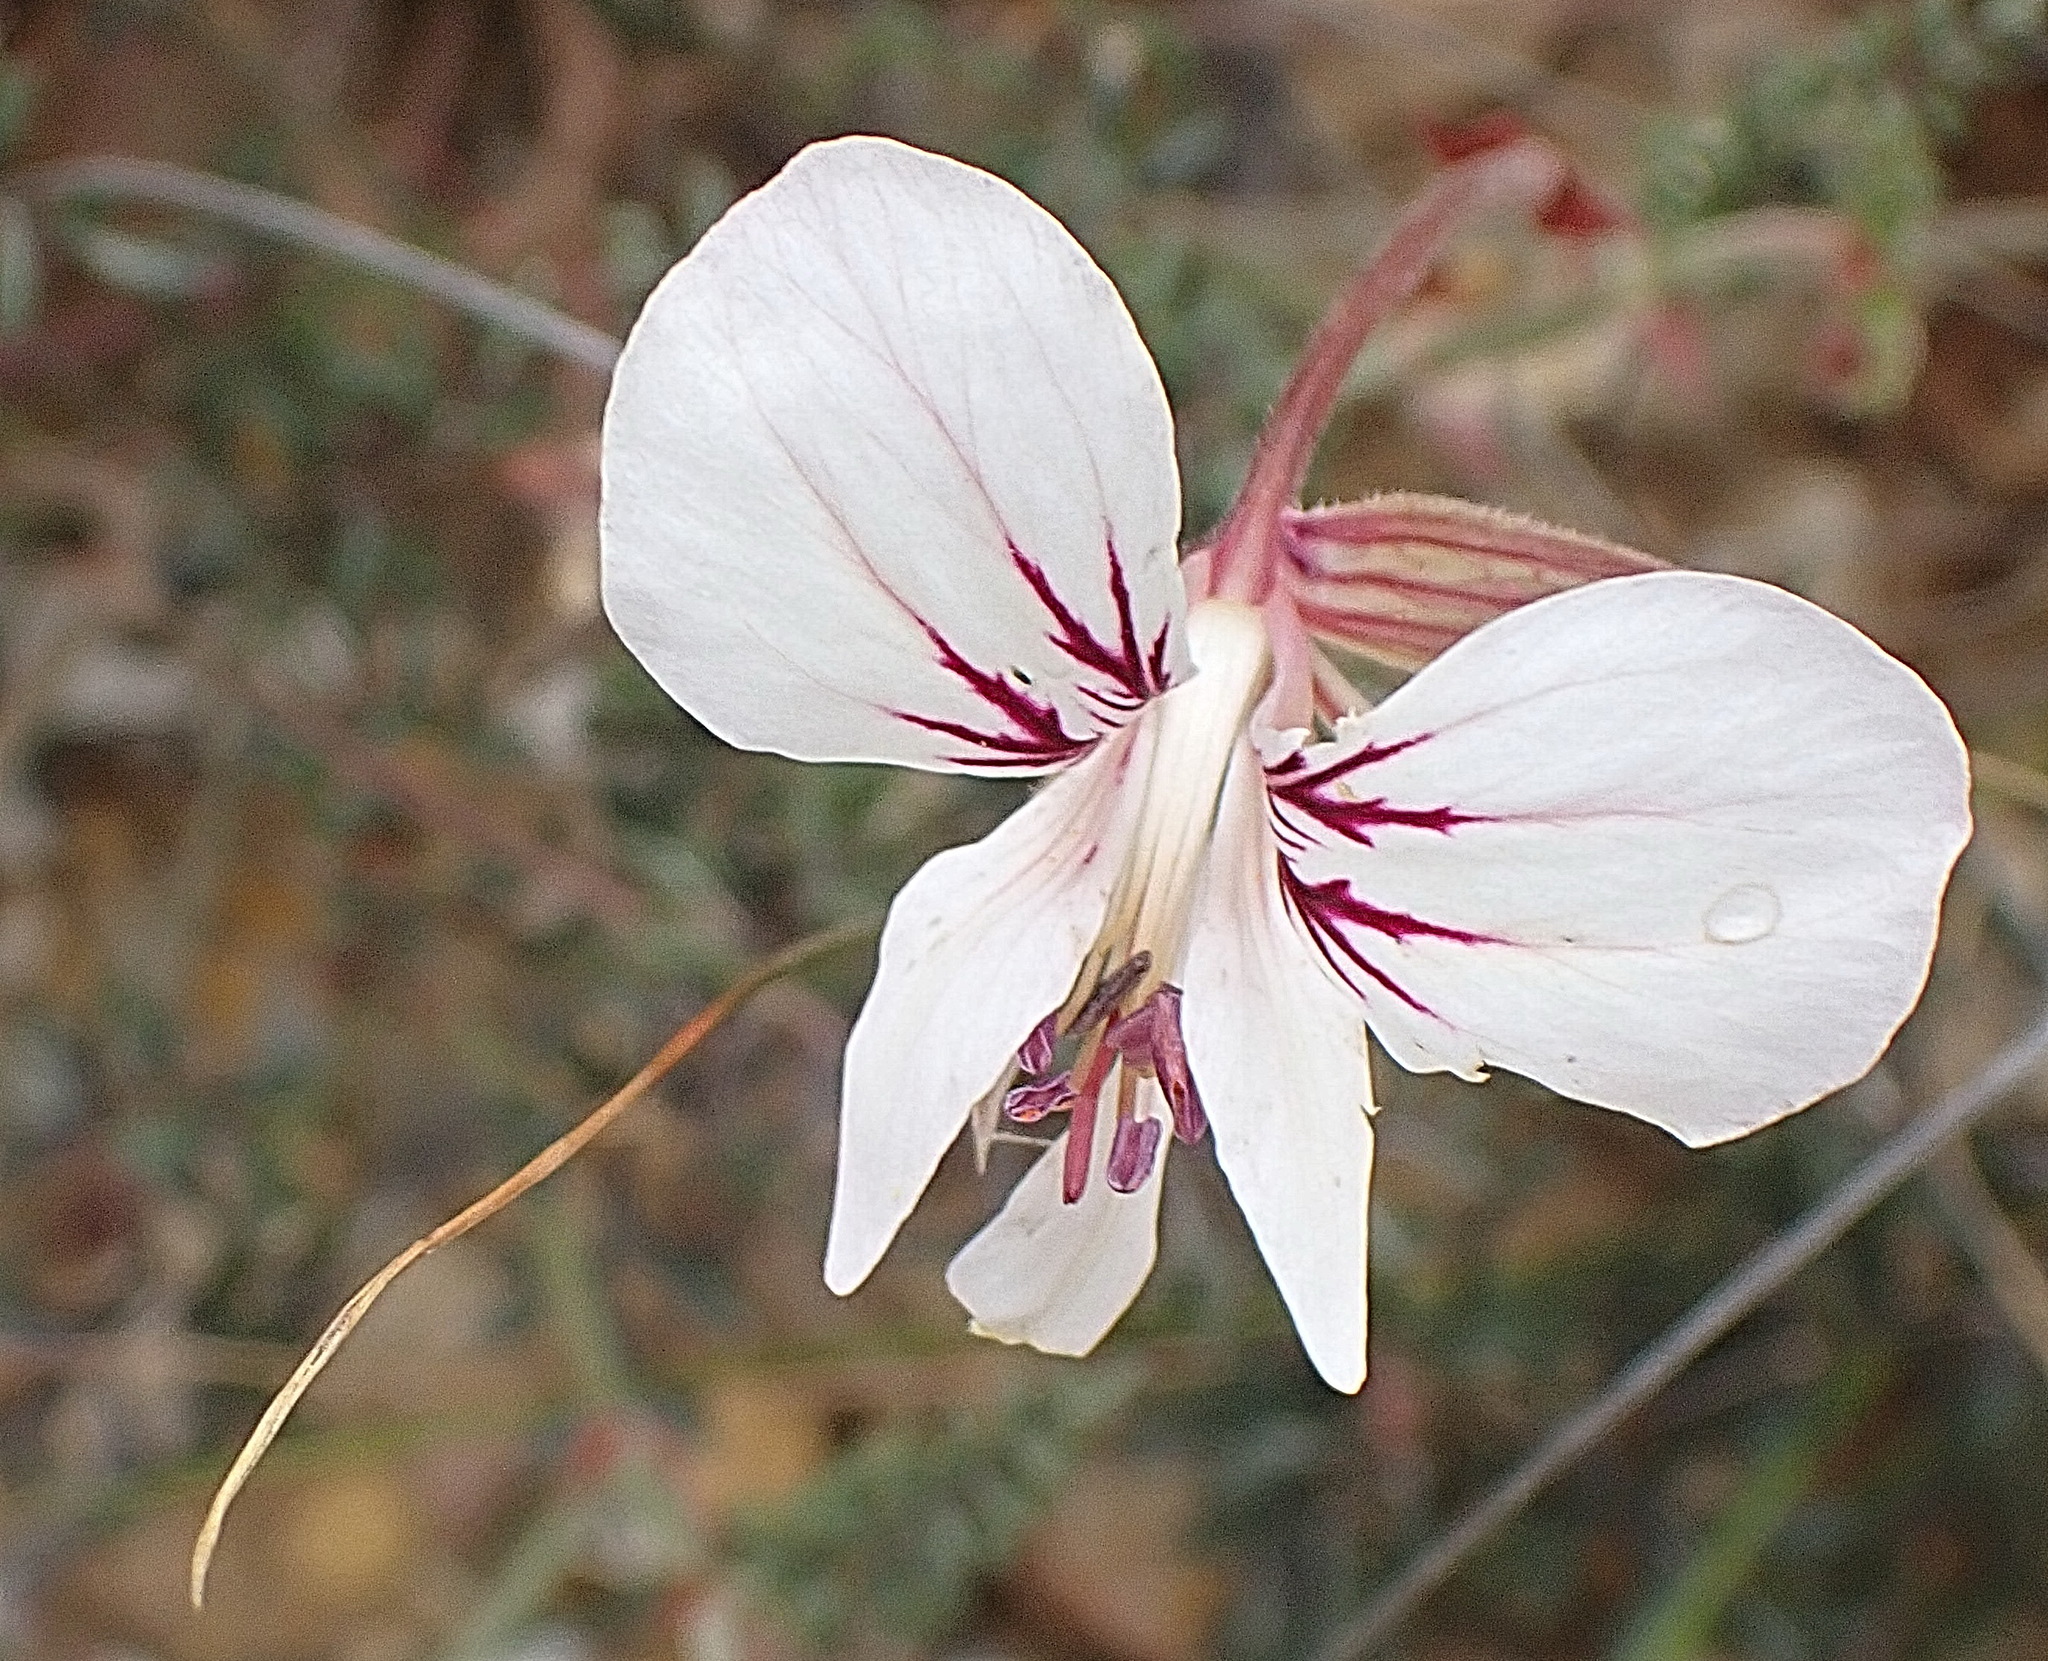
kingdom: Plantae
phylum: Tracheophyta
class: Magnoliopsida
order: Geraniales
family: Geraniaceae
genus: Pelargonium
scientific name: Pelargonium caucalifolium
